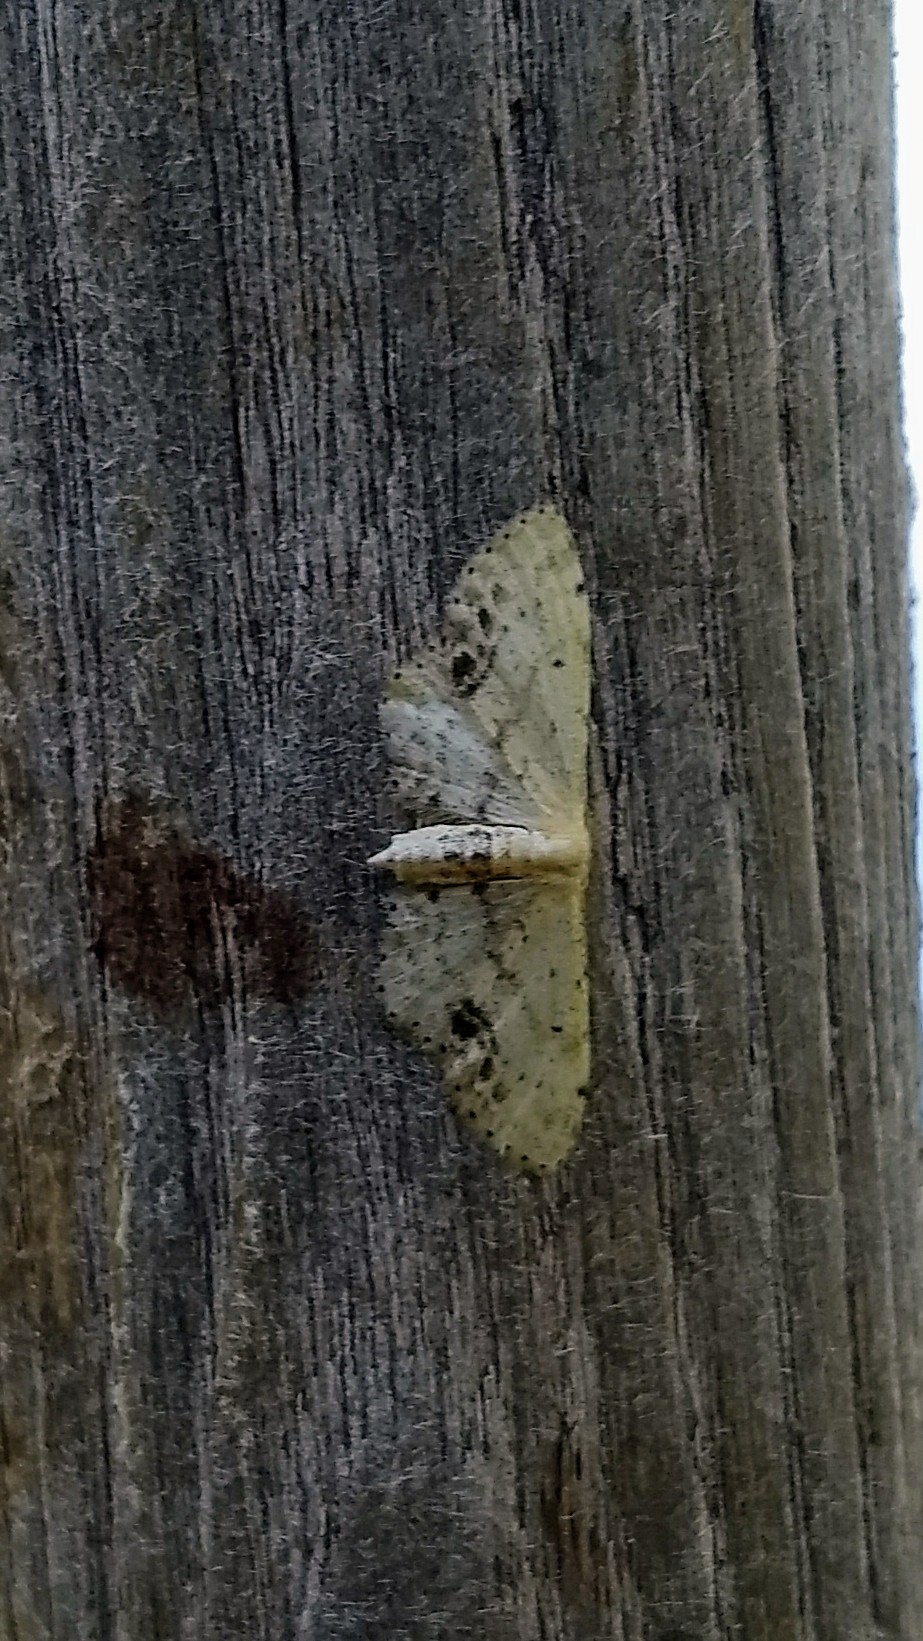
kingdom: Animalia
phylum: Arthropoda
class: Insecta
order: Lepidoptera
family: Geometridae
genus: Idaea
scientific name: Idaea dimidiata
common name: Single-dotted wave
